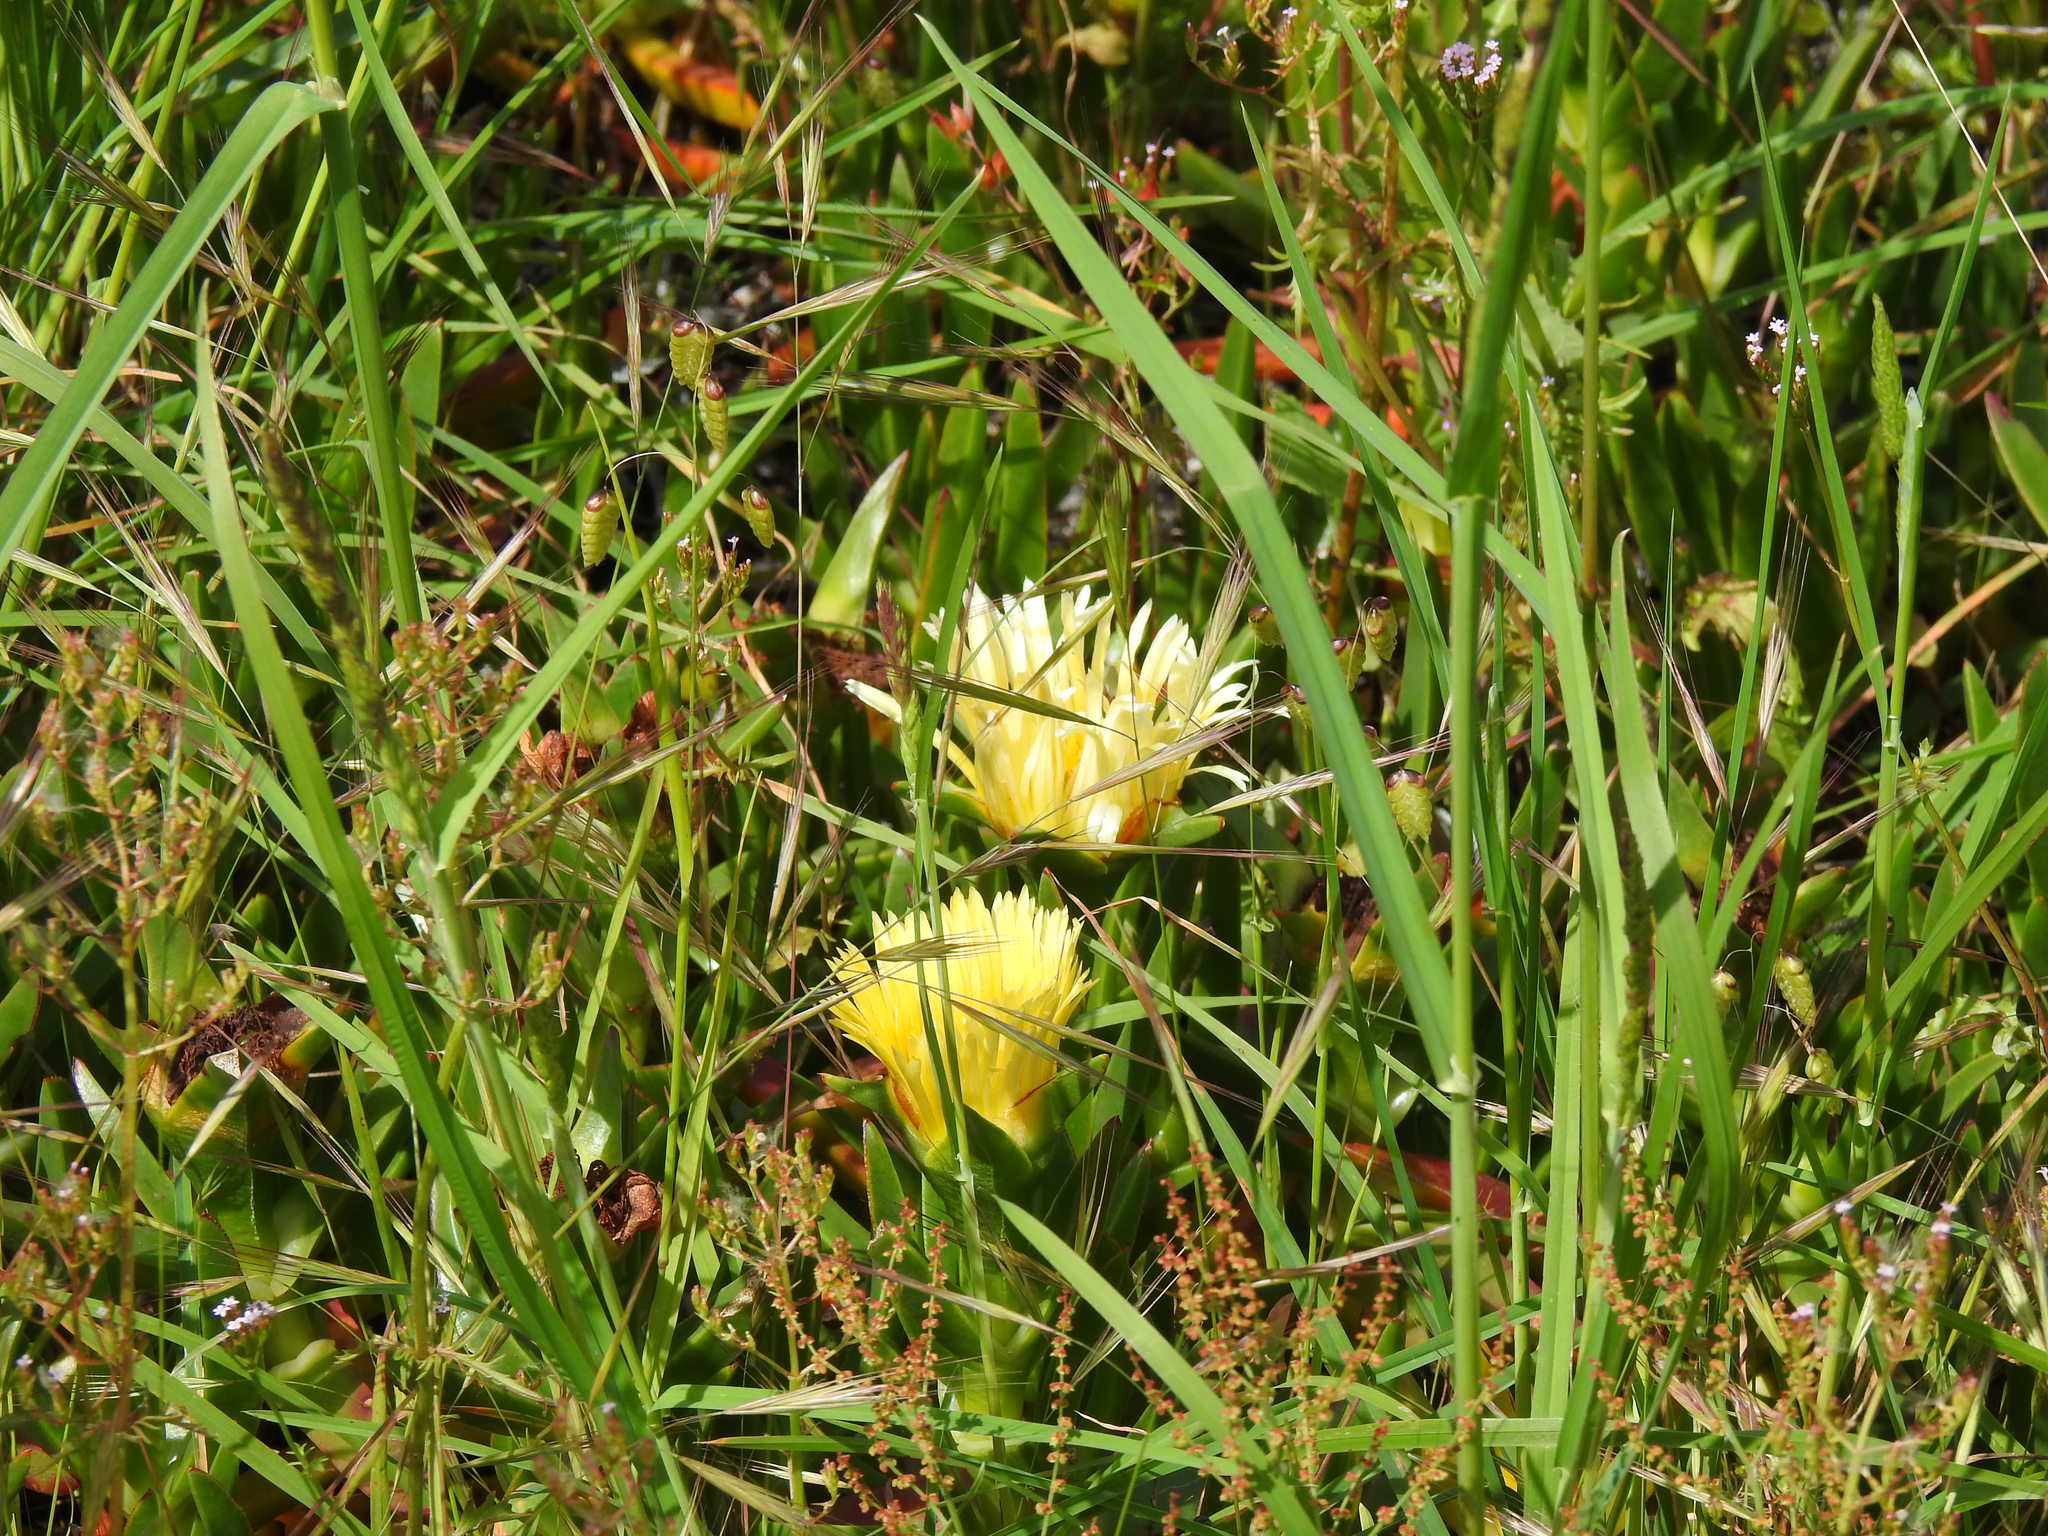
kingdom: Plantae
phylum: Tracheophyta
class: Magnoliopsida
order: Caryophyllales
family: Aizoaceae
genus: Carpobrotus
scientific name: Carpobrotus edulis
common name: Hottentot-fig
